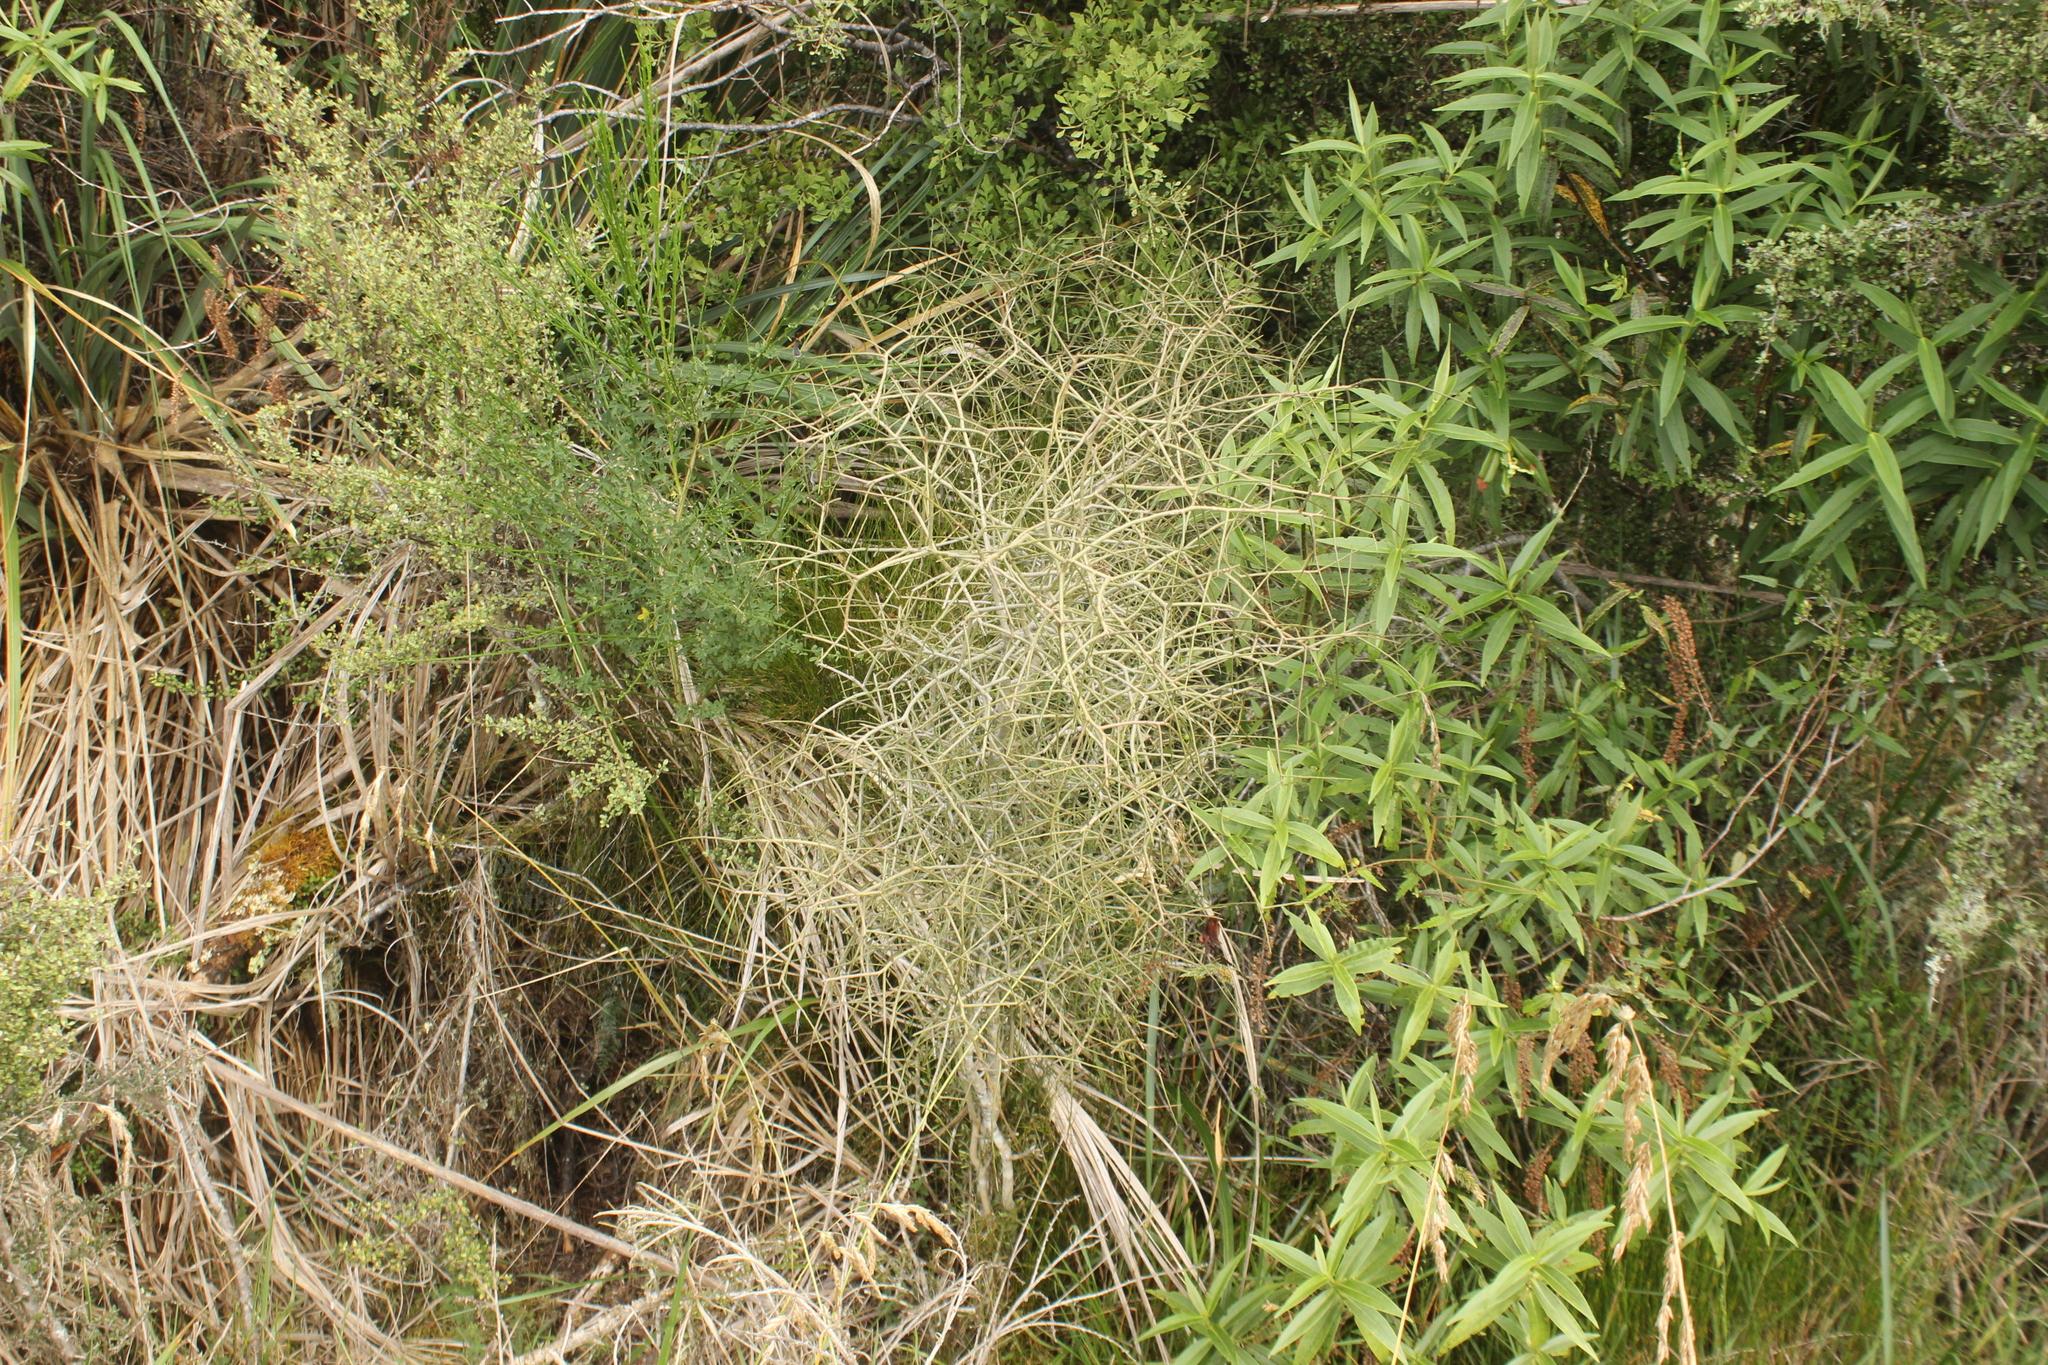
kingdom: Plantae
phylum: Tracheophyta
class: Magnoliopsida
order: Malpighiales
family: Violaceae
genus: Melicytus
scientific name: Melicytus flexuosus
